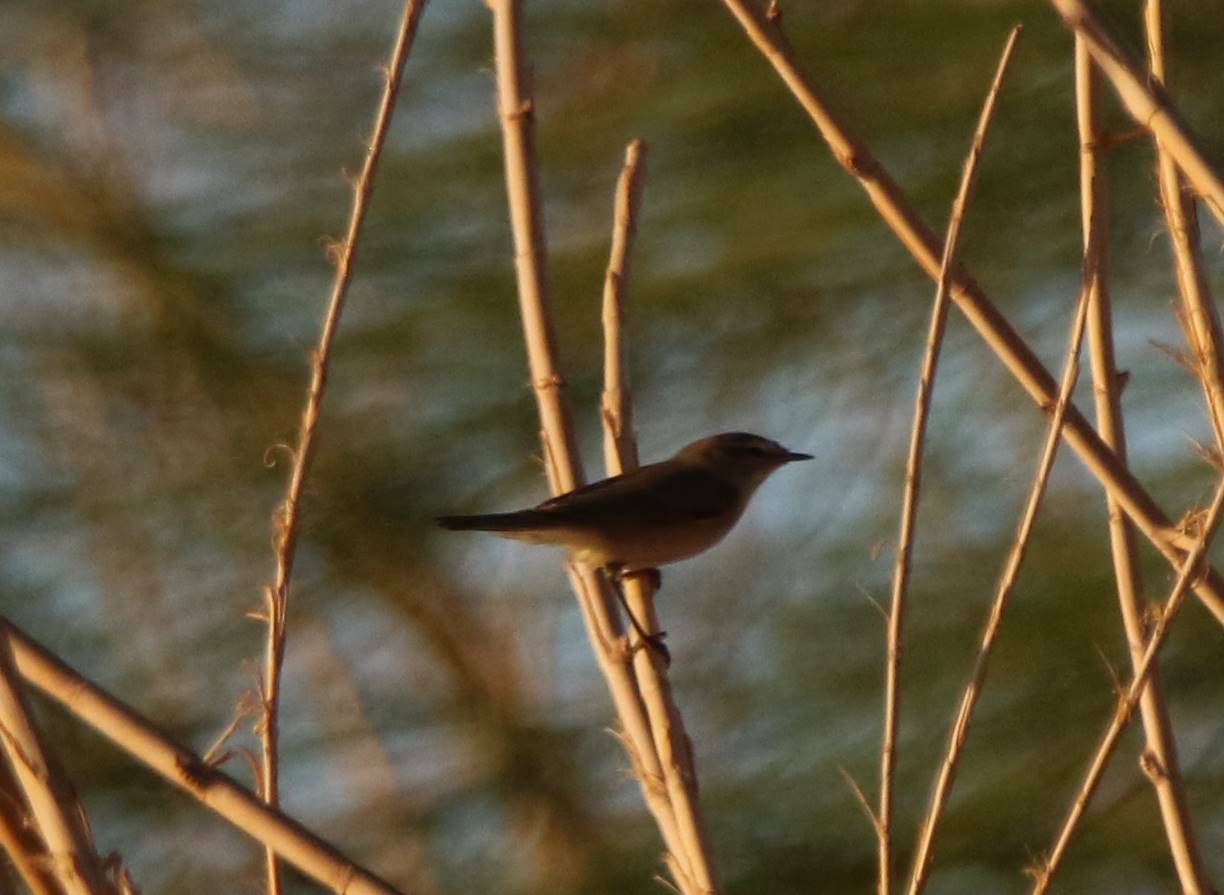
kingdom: Animalia
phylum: Chordata
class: Aves
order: Passeriformes
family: Phylloscopidae
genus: Phylloscopus
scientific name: Phylloscopus collybita
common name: Common chiffchaff
